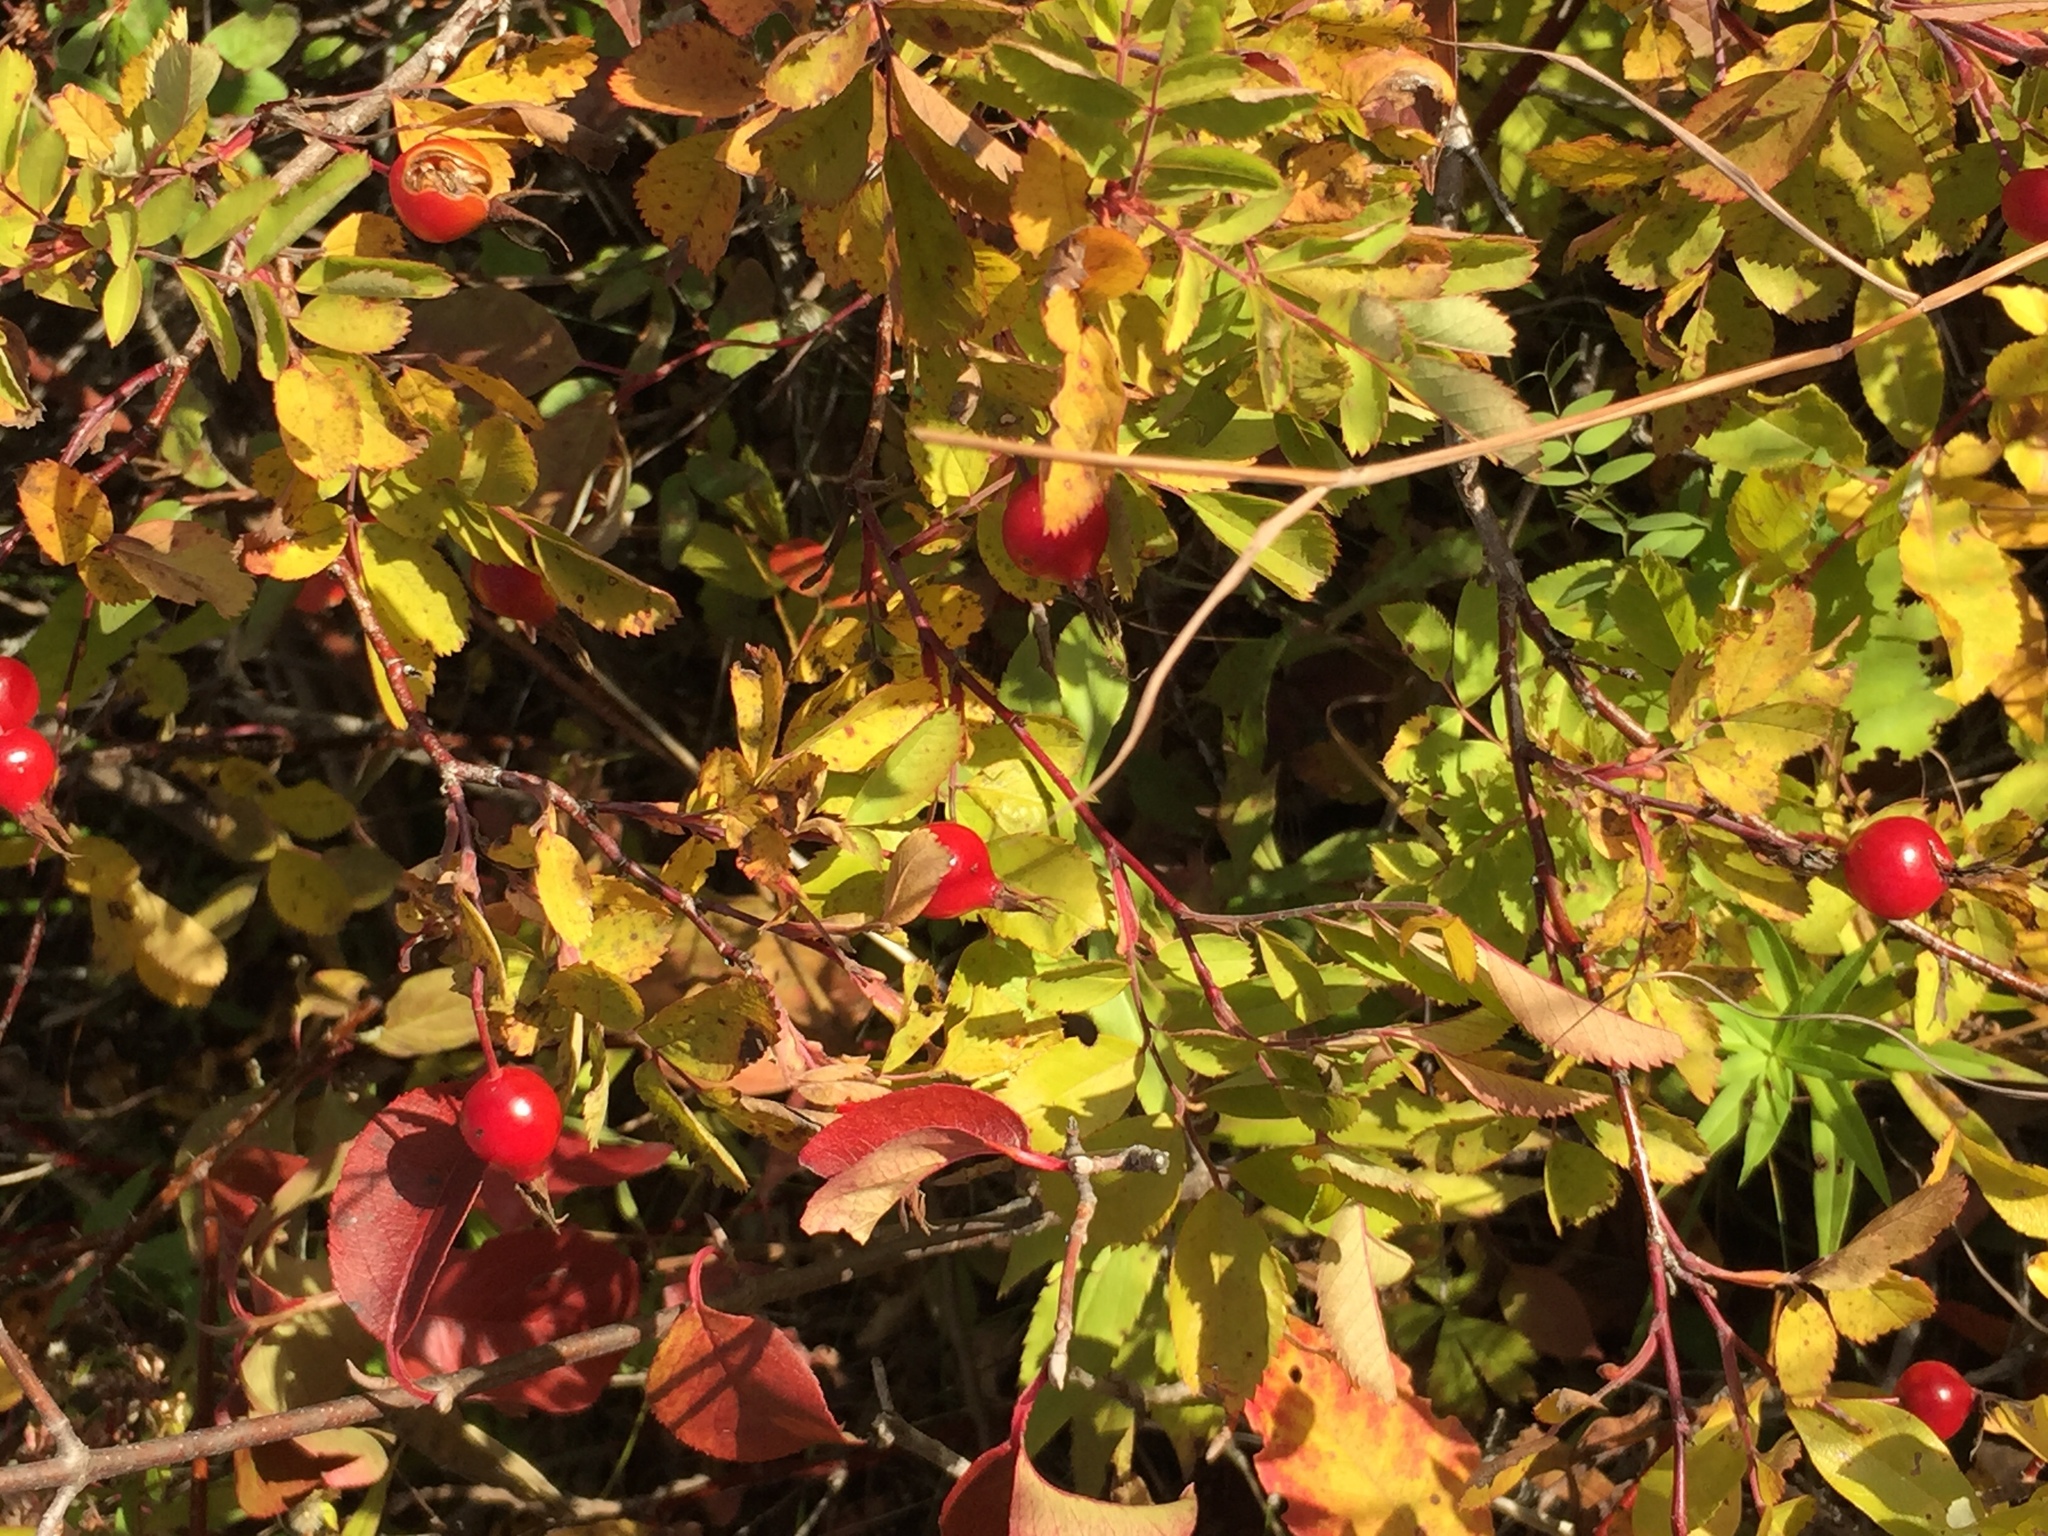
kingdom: Plantae
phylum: Tracheophyta
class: Magnoliopsida
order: Rosales
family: Rosaceae
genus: Rosa
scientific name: Rosa woodsii
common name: Woods's rose
